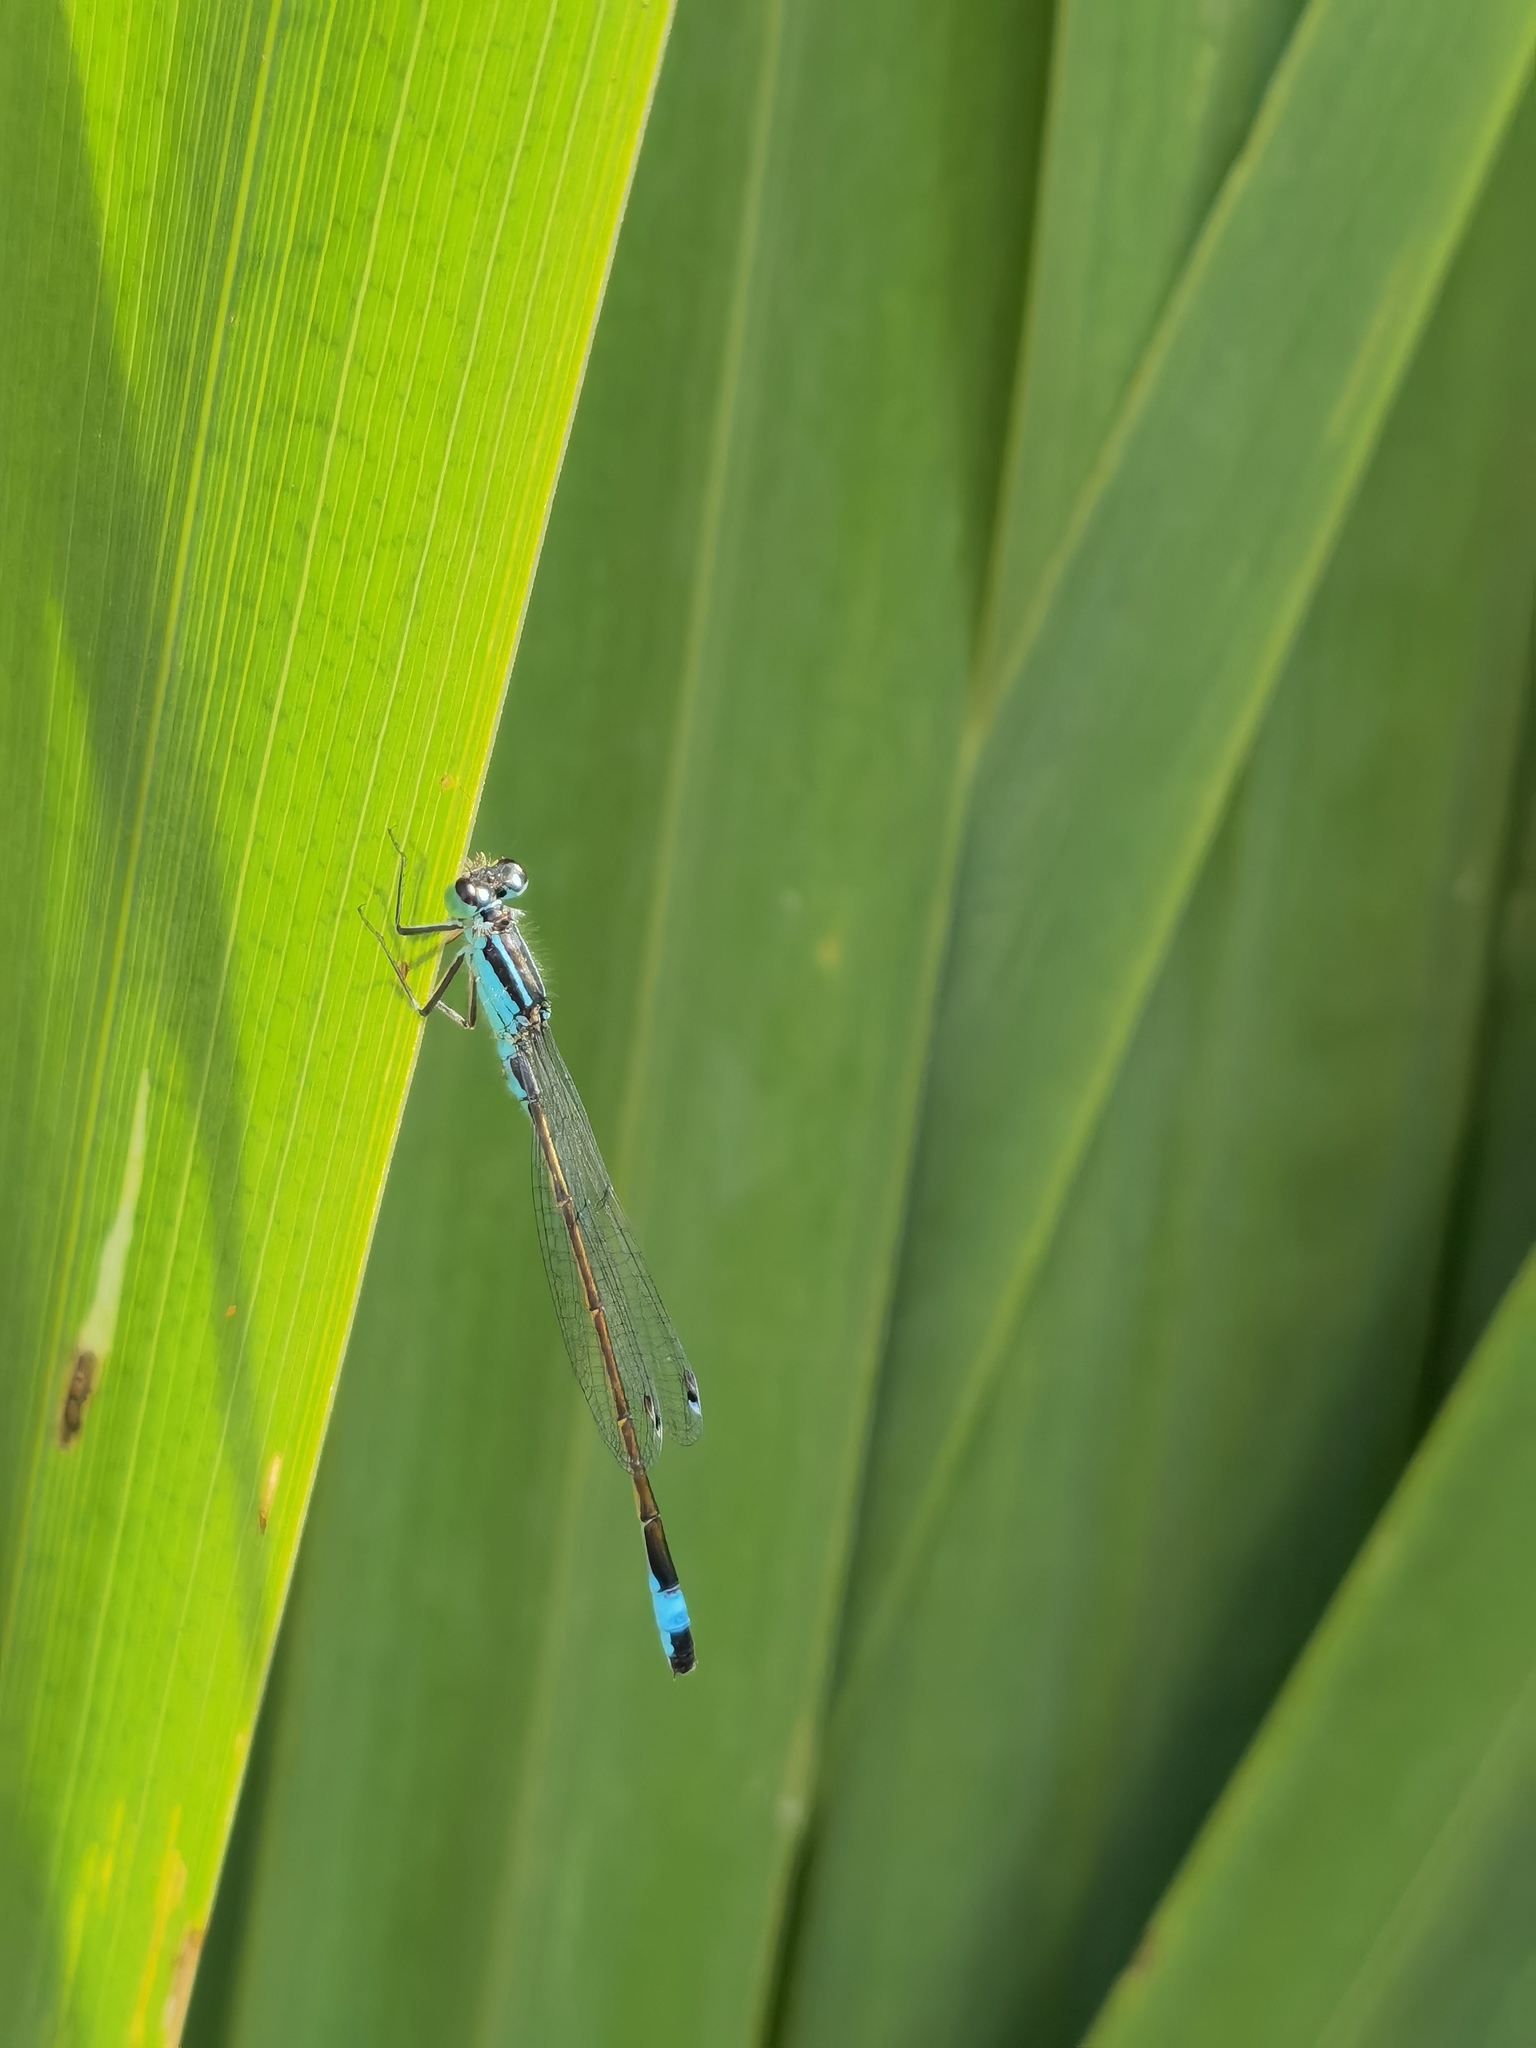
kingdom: Animalia
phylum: Arthropoda
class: Insecta
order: Odonata
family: Coenagrionidae
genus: Ischnura
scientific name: Ischnura elegans
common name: Blue-tailed damselfly
